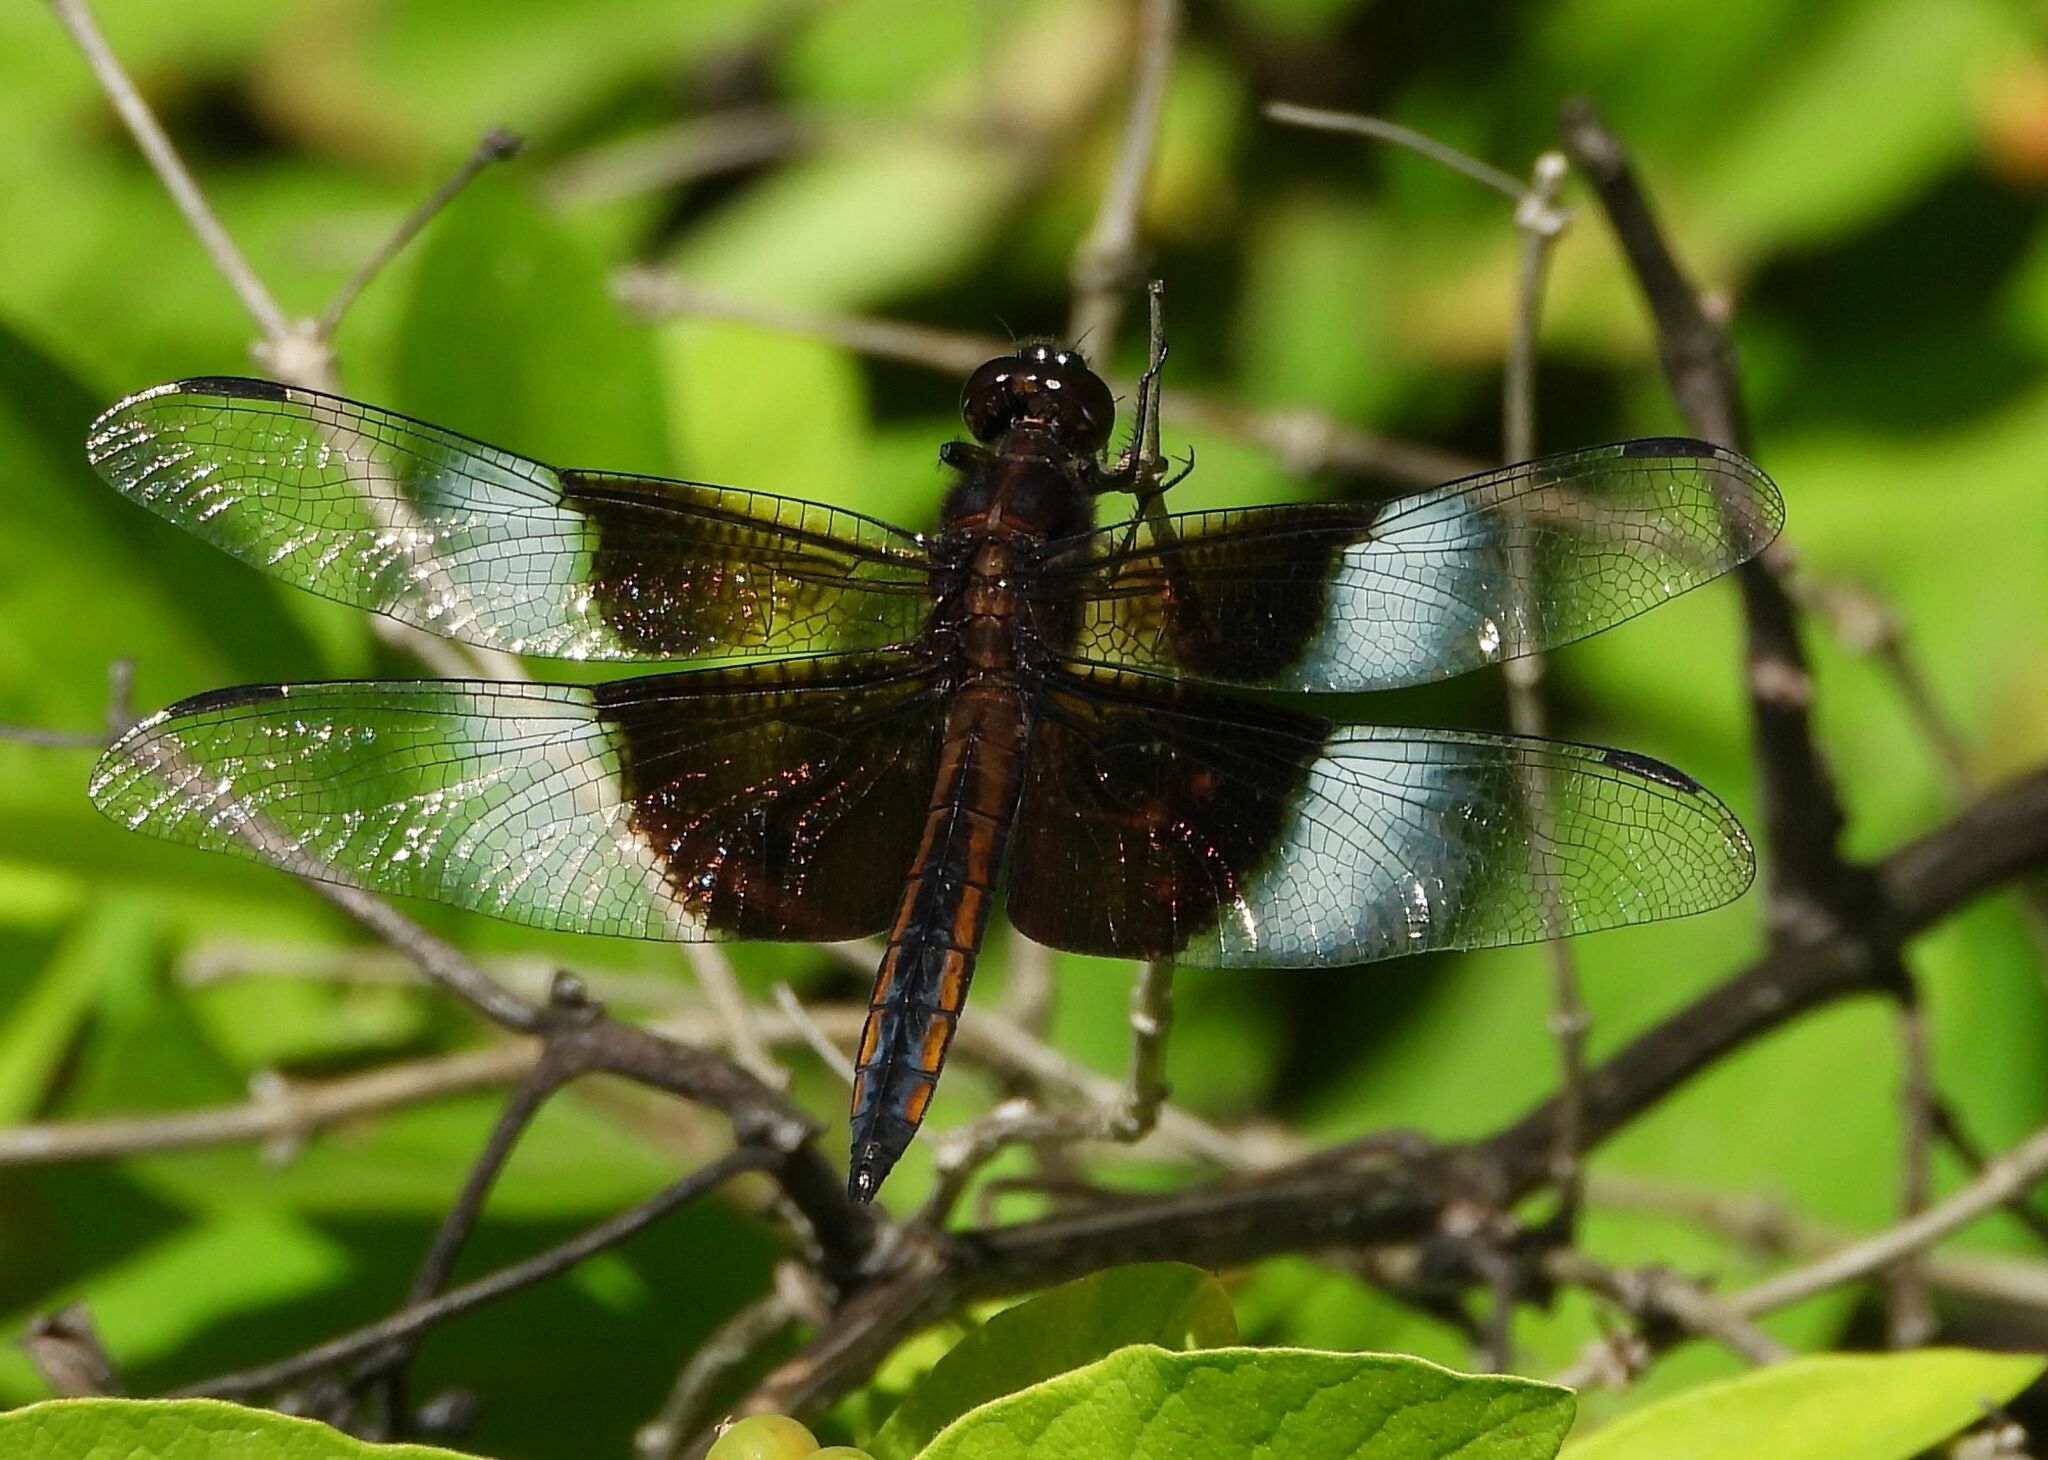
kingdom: Animalia
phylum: Arthropoda
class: Insecta
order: Odonata
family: Libellulidae
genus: Libellula
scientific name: Libellula luctuosa
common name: Widow skimmer
